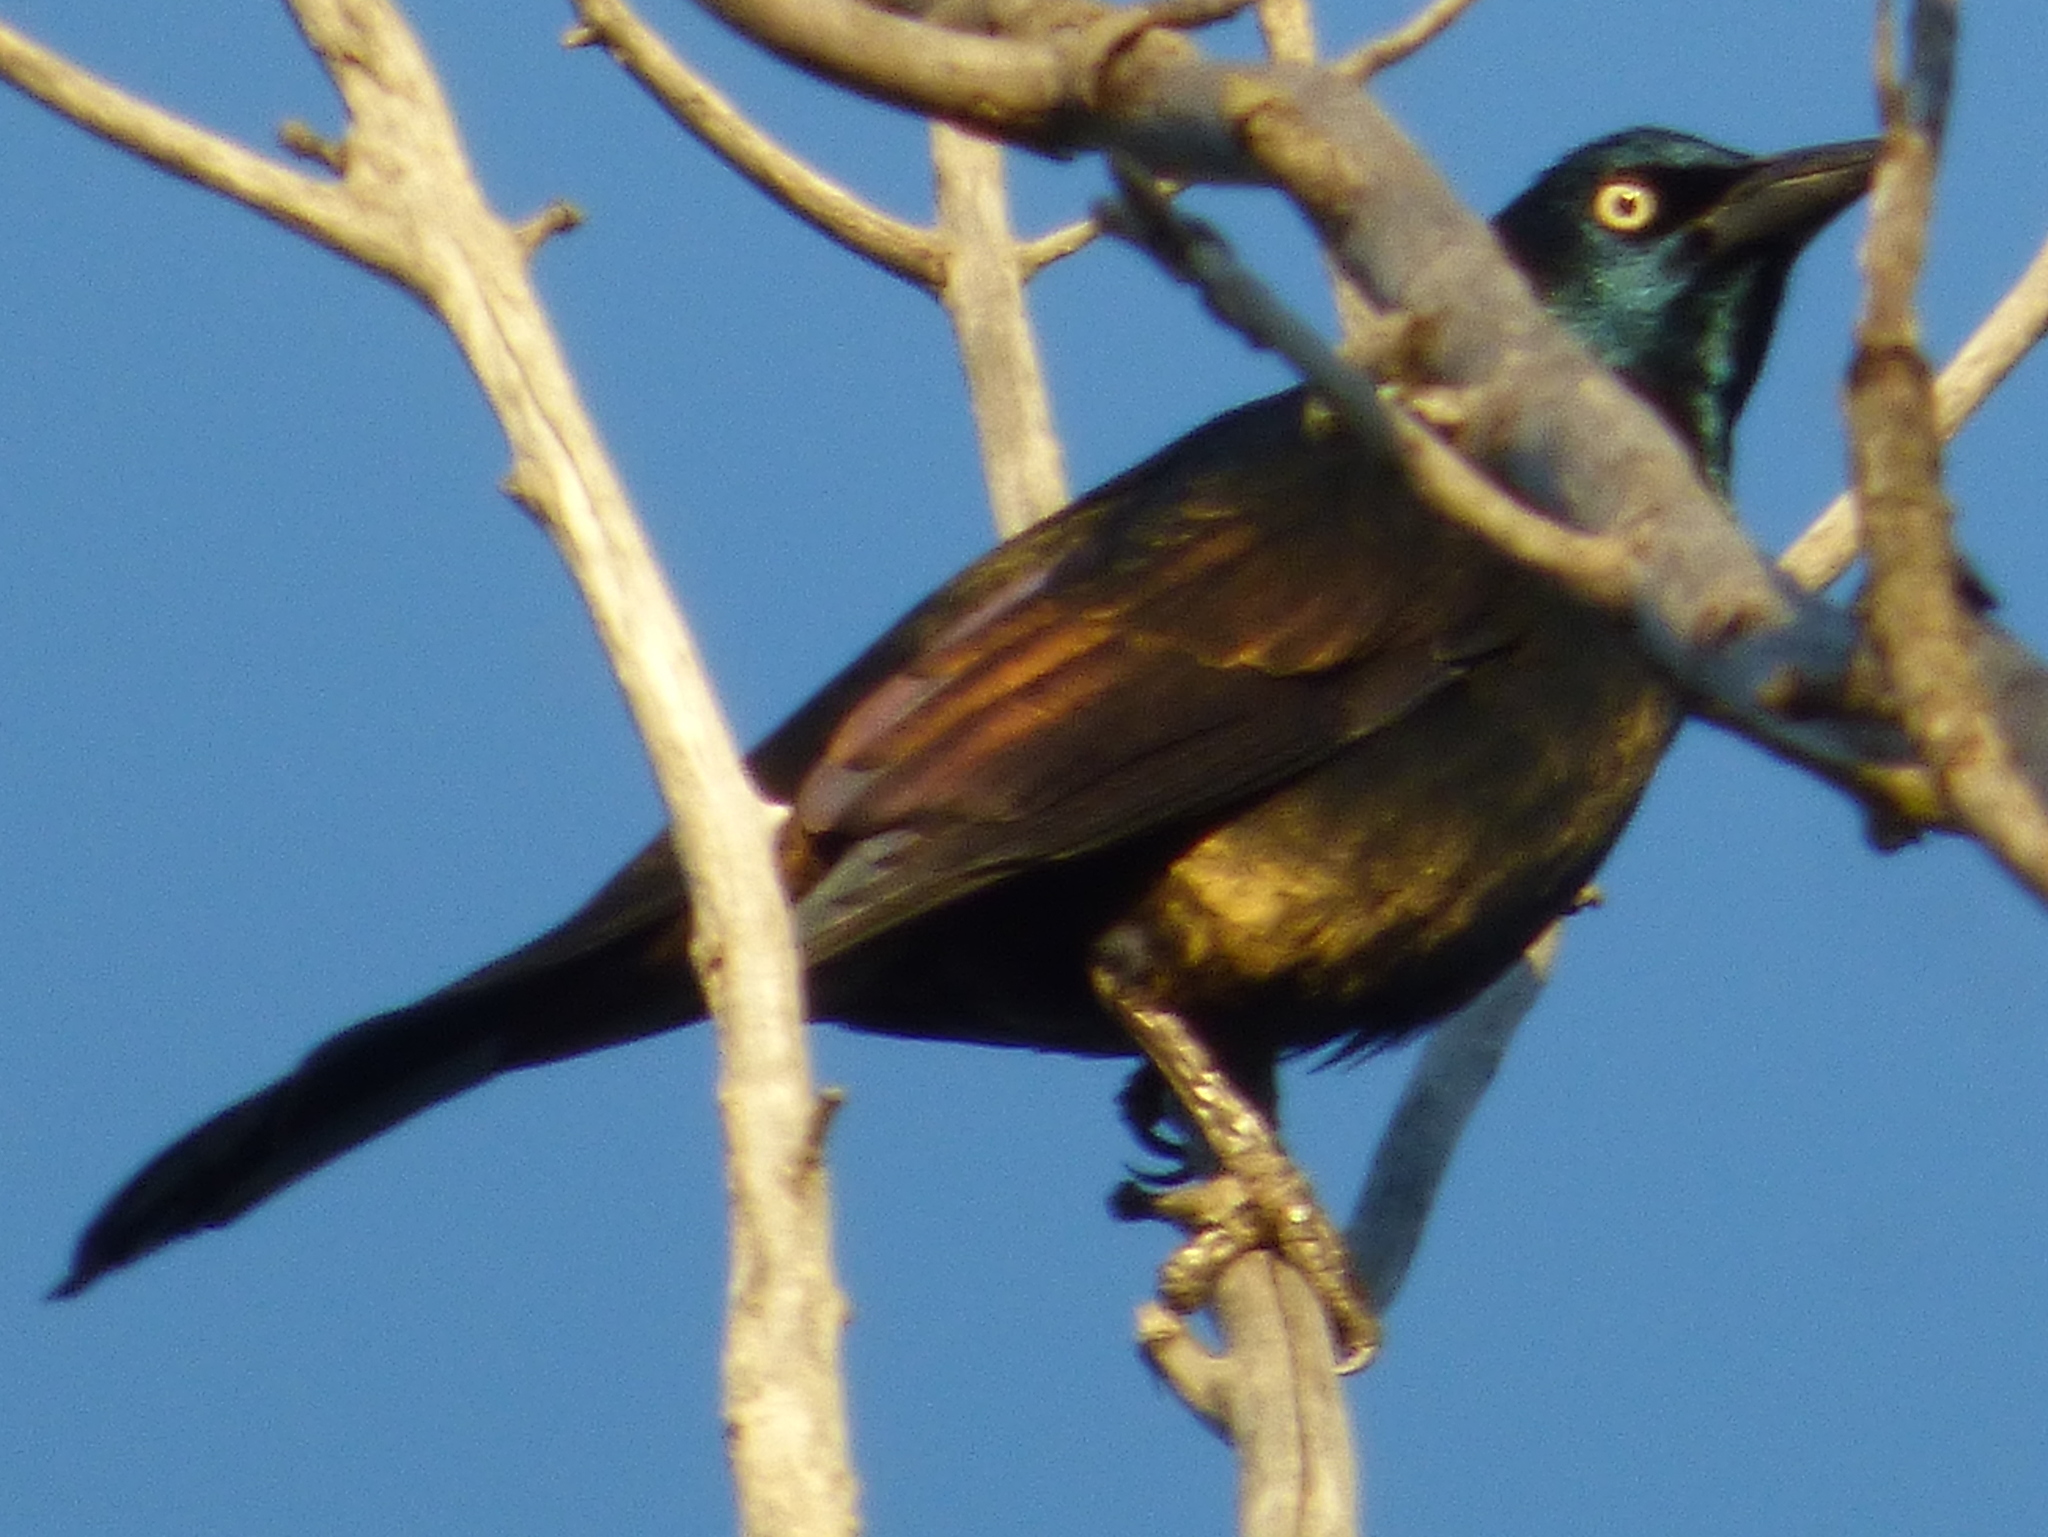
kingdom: Animalia
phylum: Chordata
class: Aves
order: Passeriformes
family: Icteridae
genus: Quiscalus
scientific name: Quiscalus quiscula
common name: Common grackle
